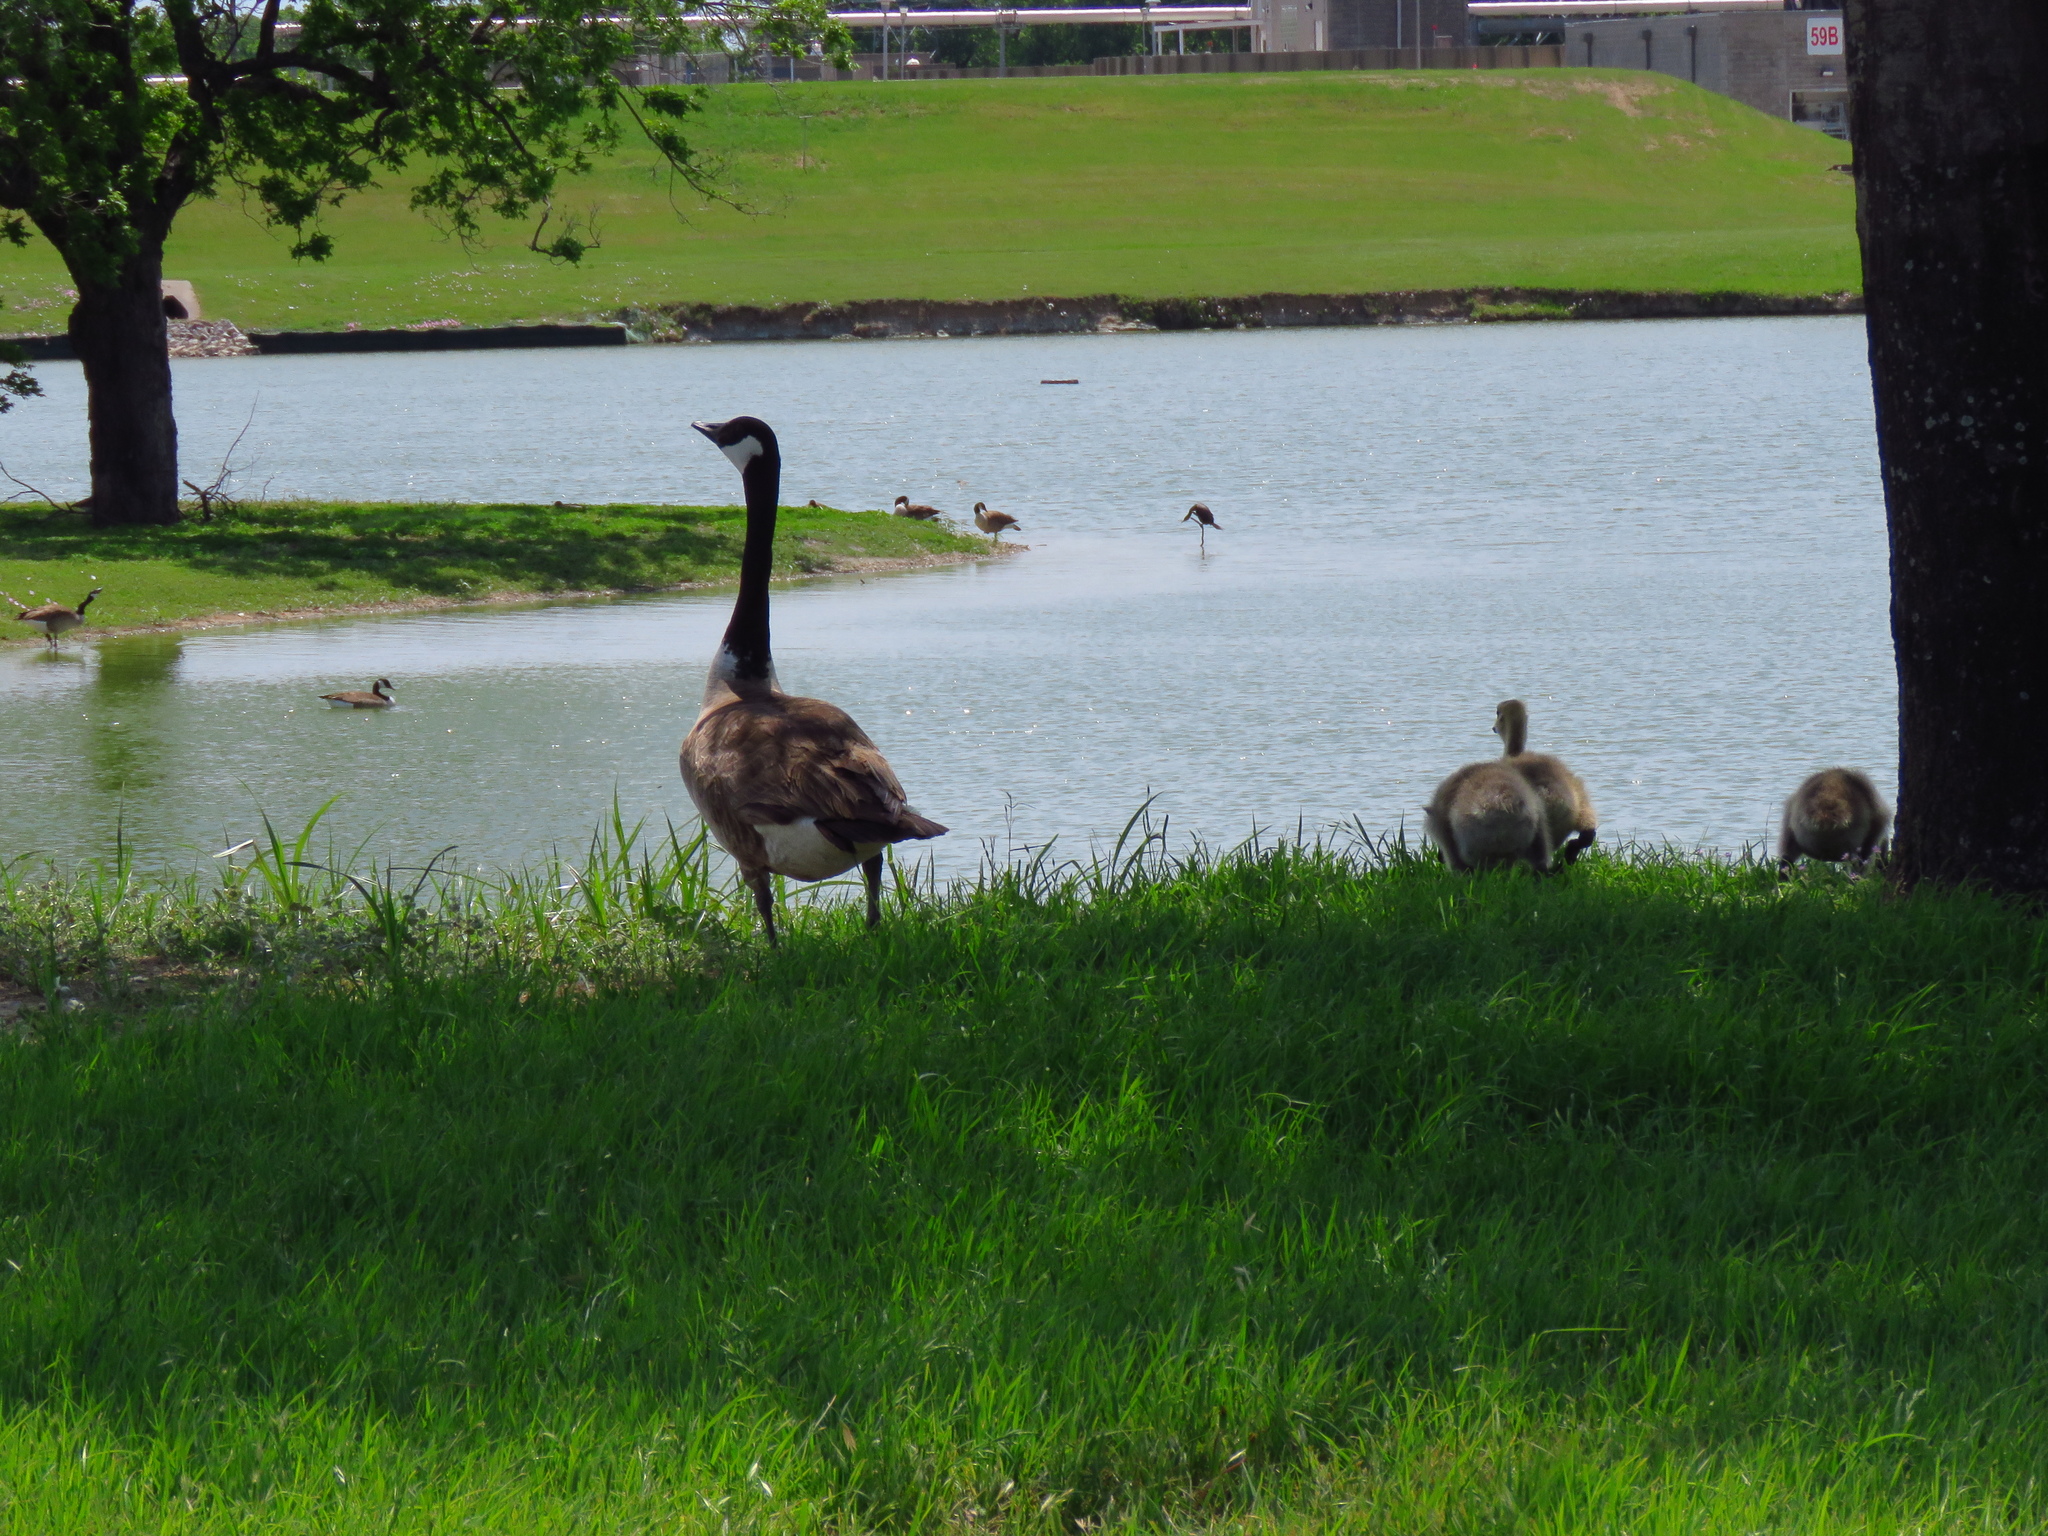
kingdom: Animalia
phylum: Chordata
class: Aves
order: Anseriformes
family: Anatidae
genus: Branta
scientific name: Branta canadensis
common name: Canada goose
